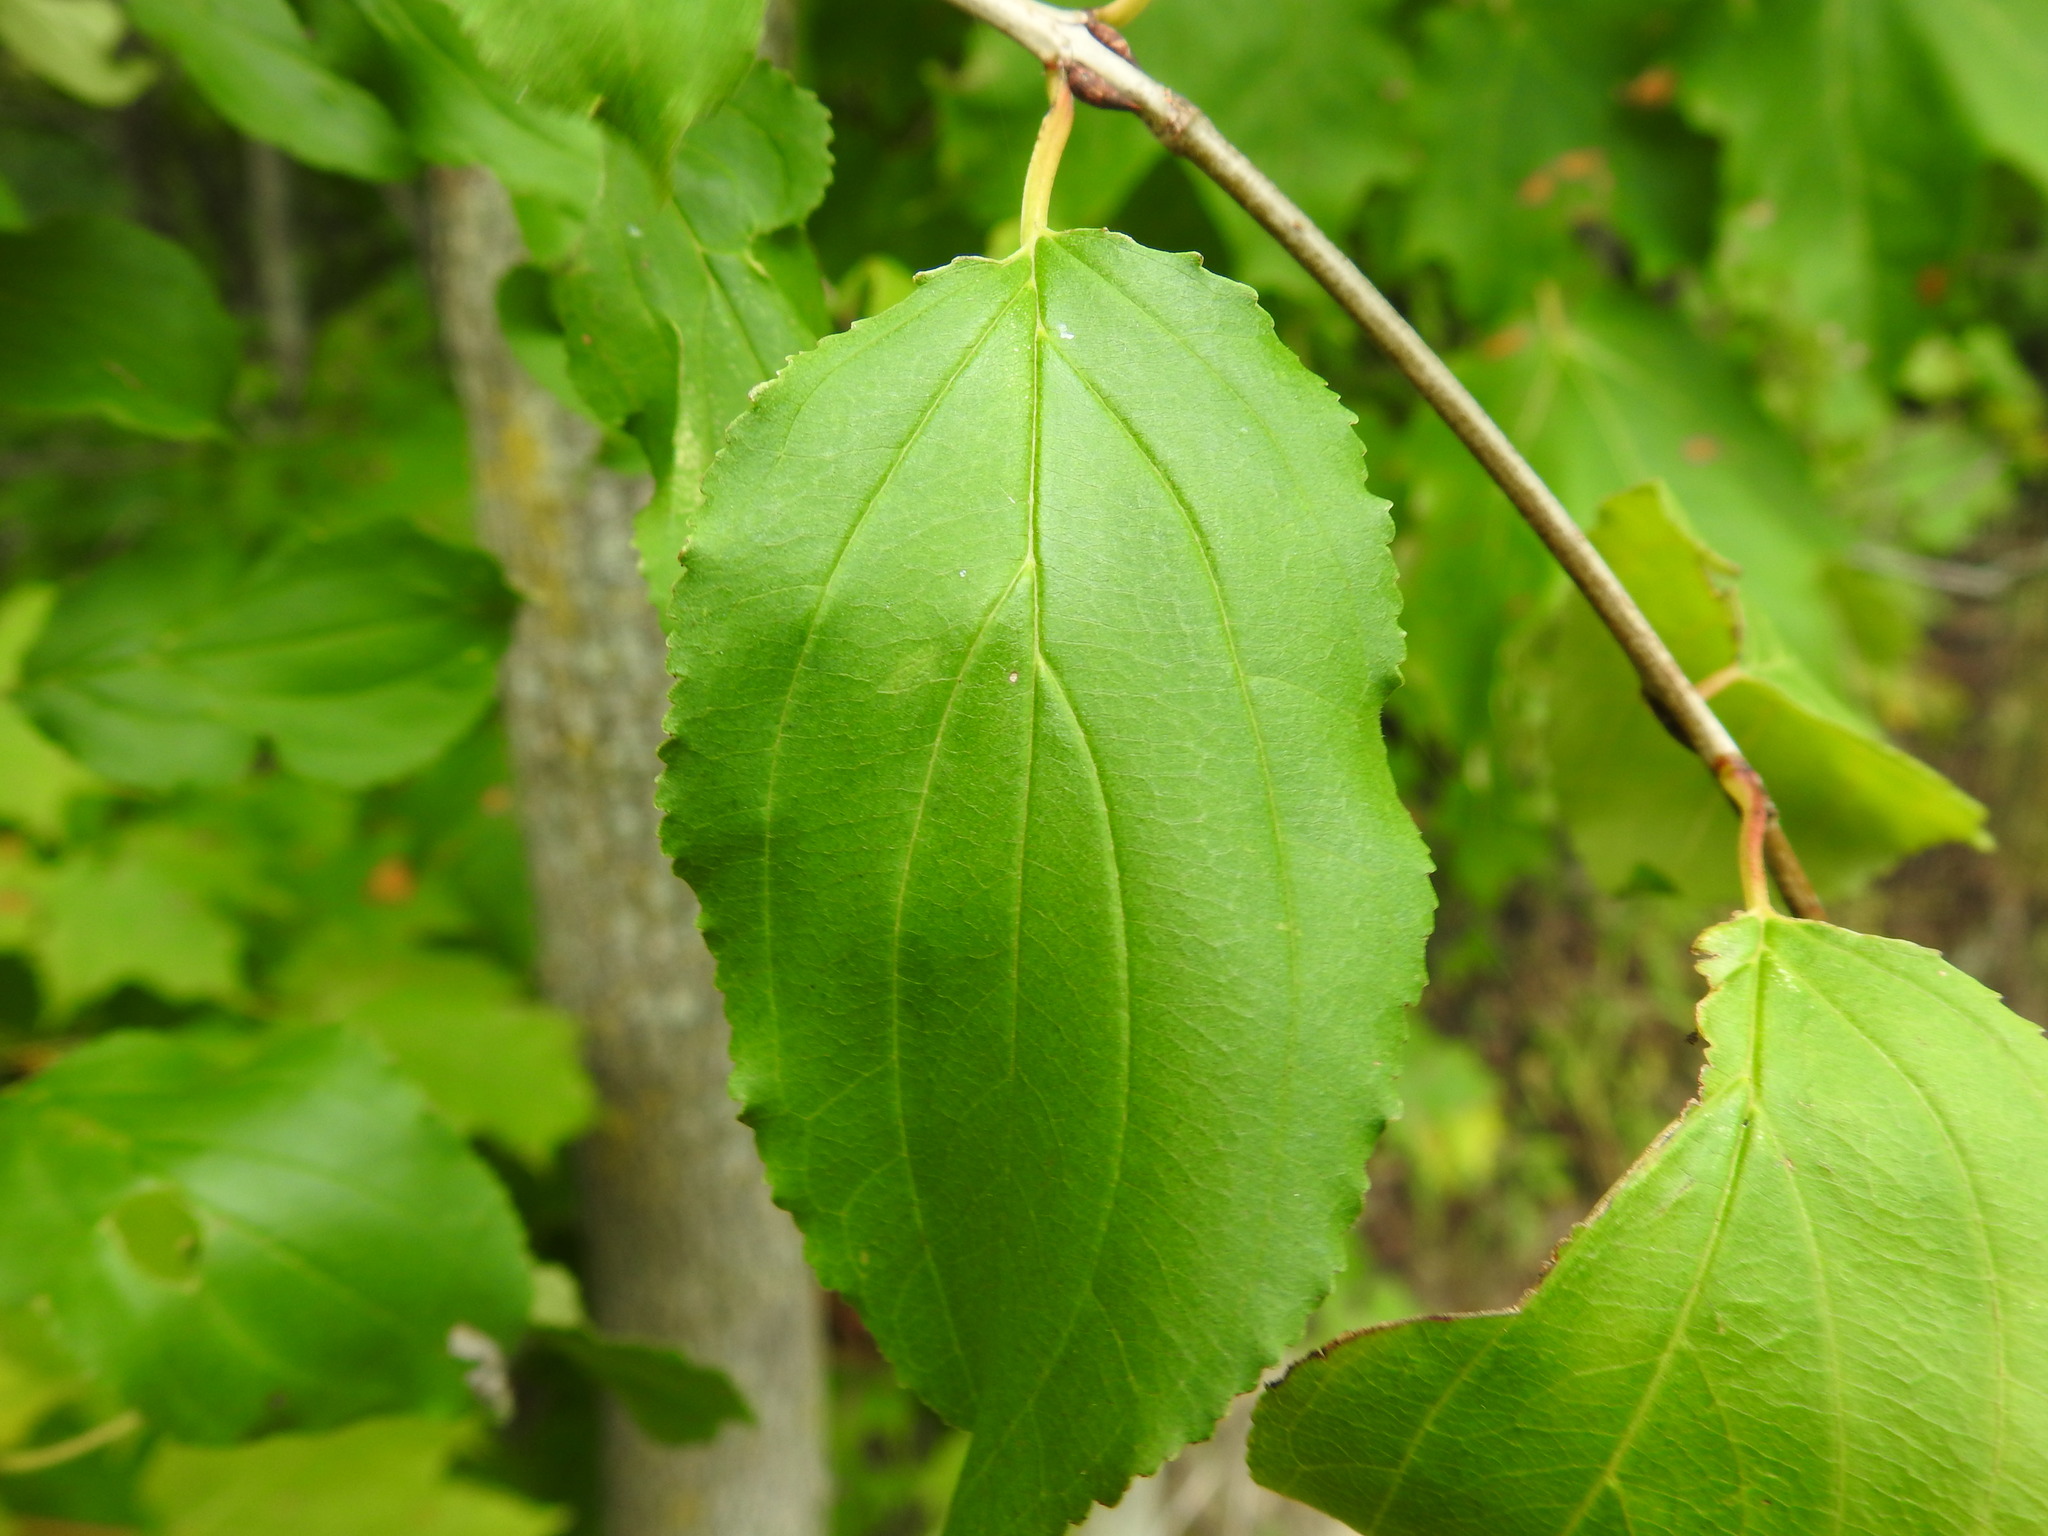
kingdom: Plantae
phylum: Tracheophyta
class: Magnoliopsida
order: Rosales
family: Rhamnaceae
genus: Rhamnus
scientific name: Rhamnus cathartica
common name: Common buckthorn
